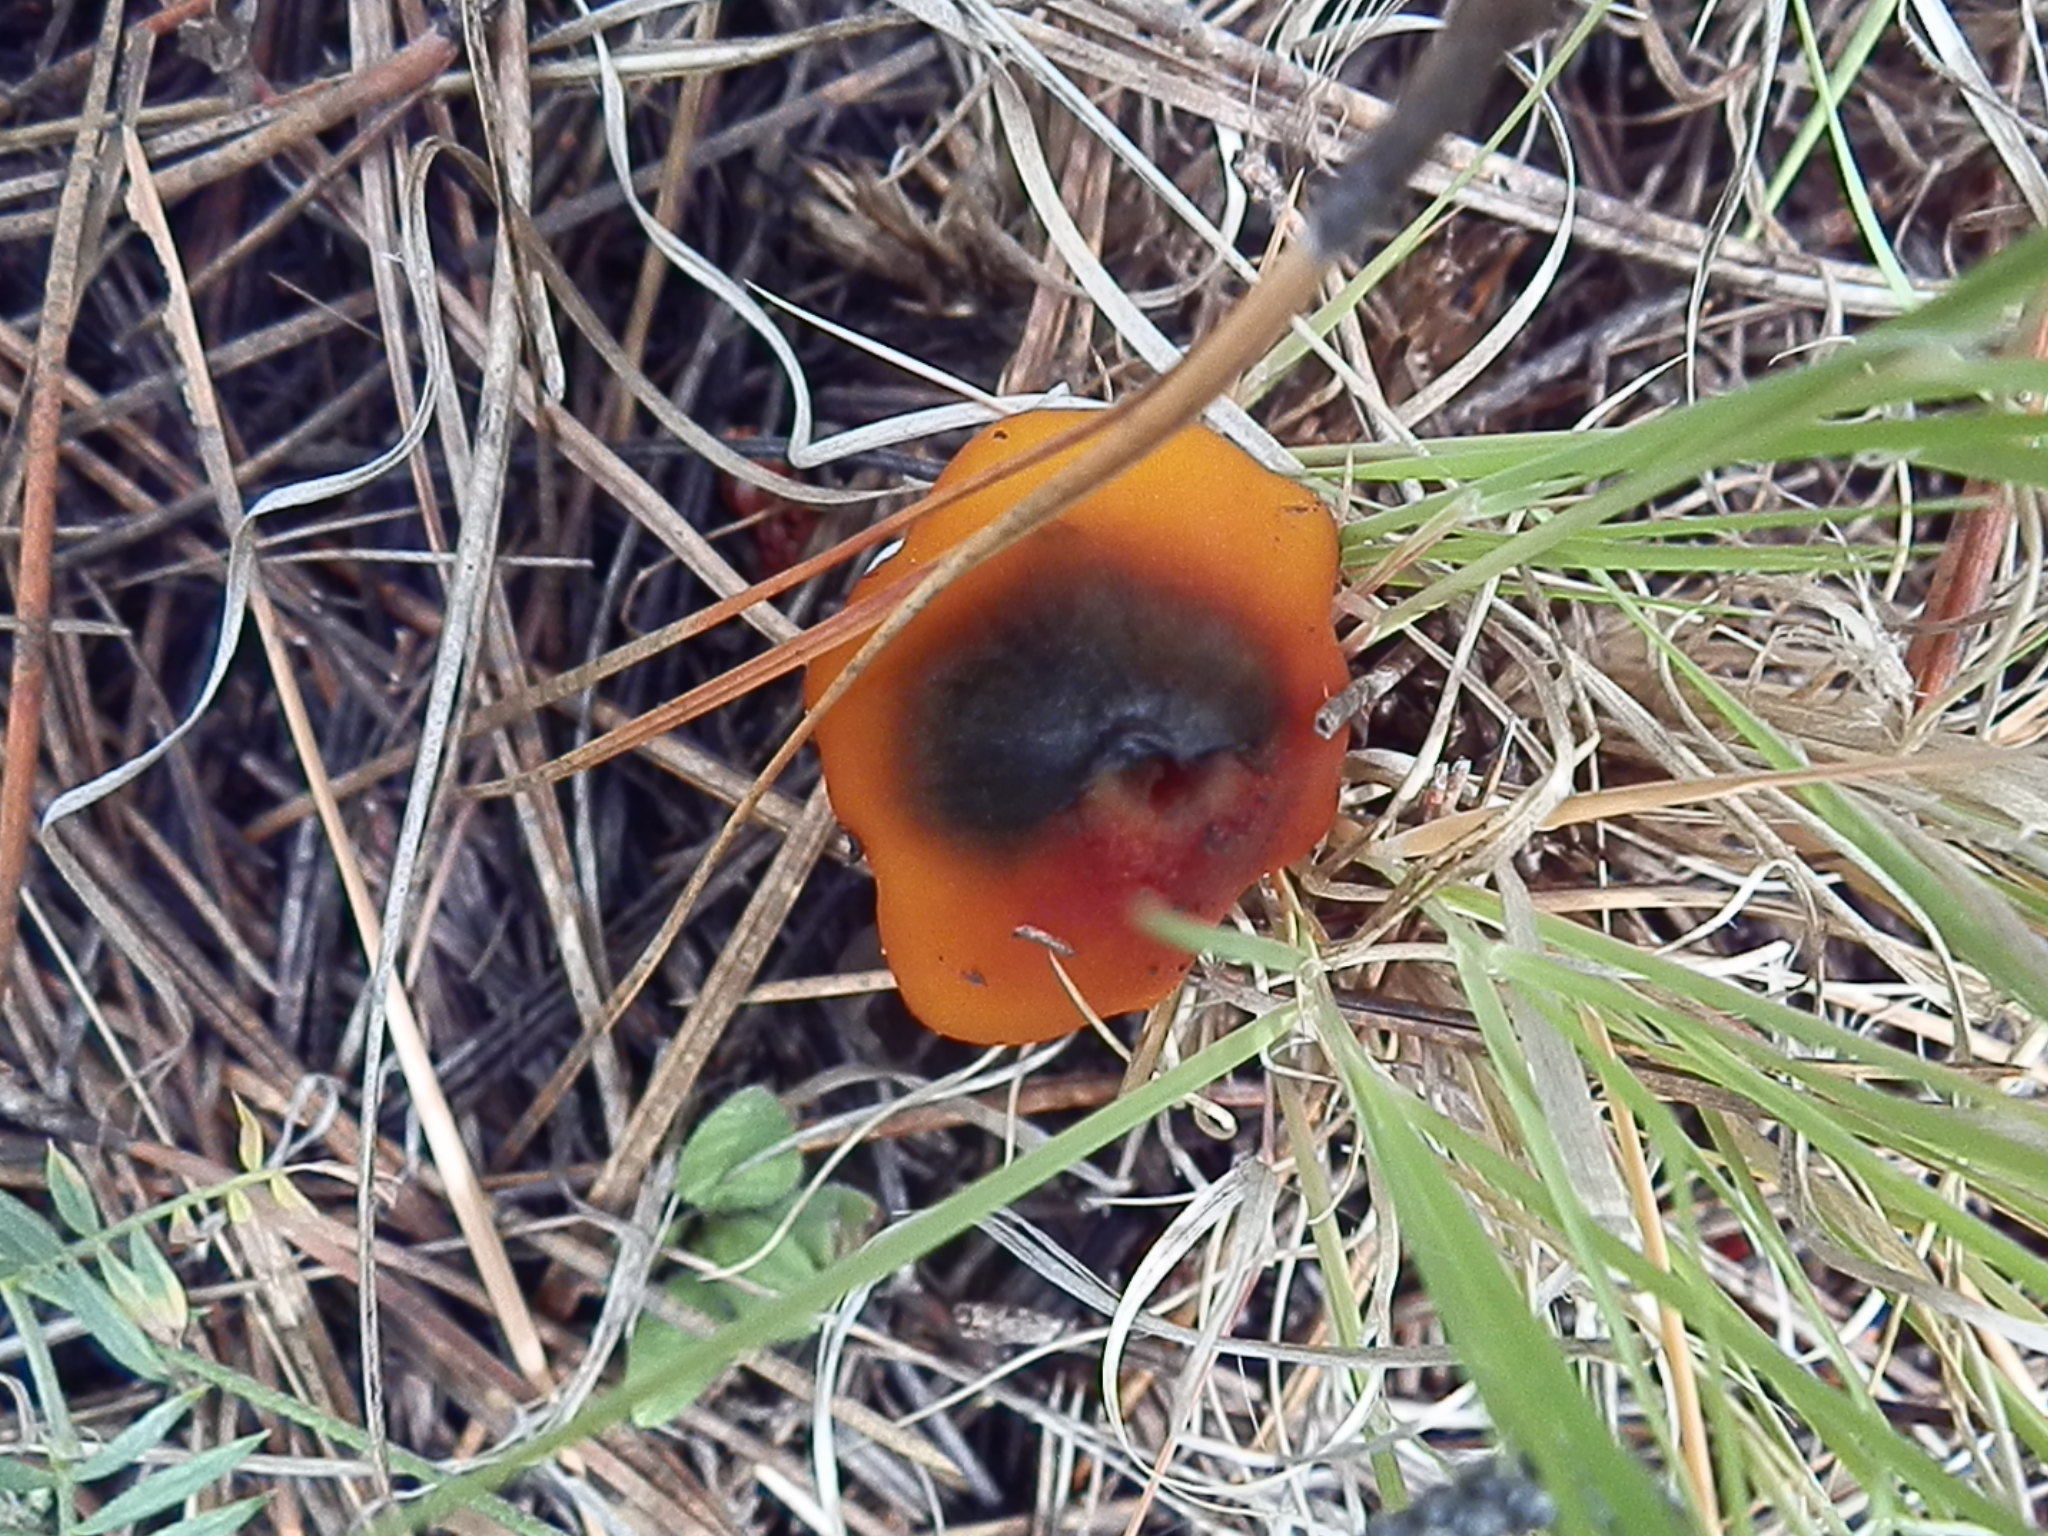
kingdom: Fungi
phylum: Basidiomycota
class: Agaricomycetes
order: Agaricales
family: Hygrophoraceae
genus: Hygrocybe
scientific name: Hygrocybe conica
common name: Blackening wax-cap
